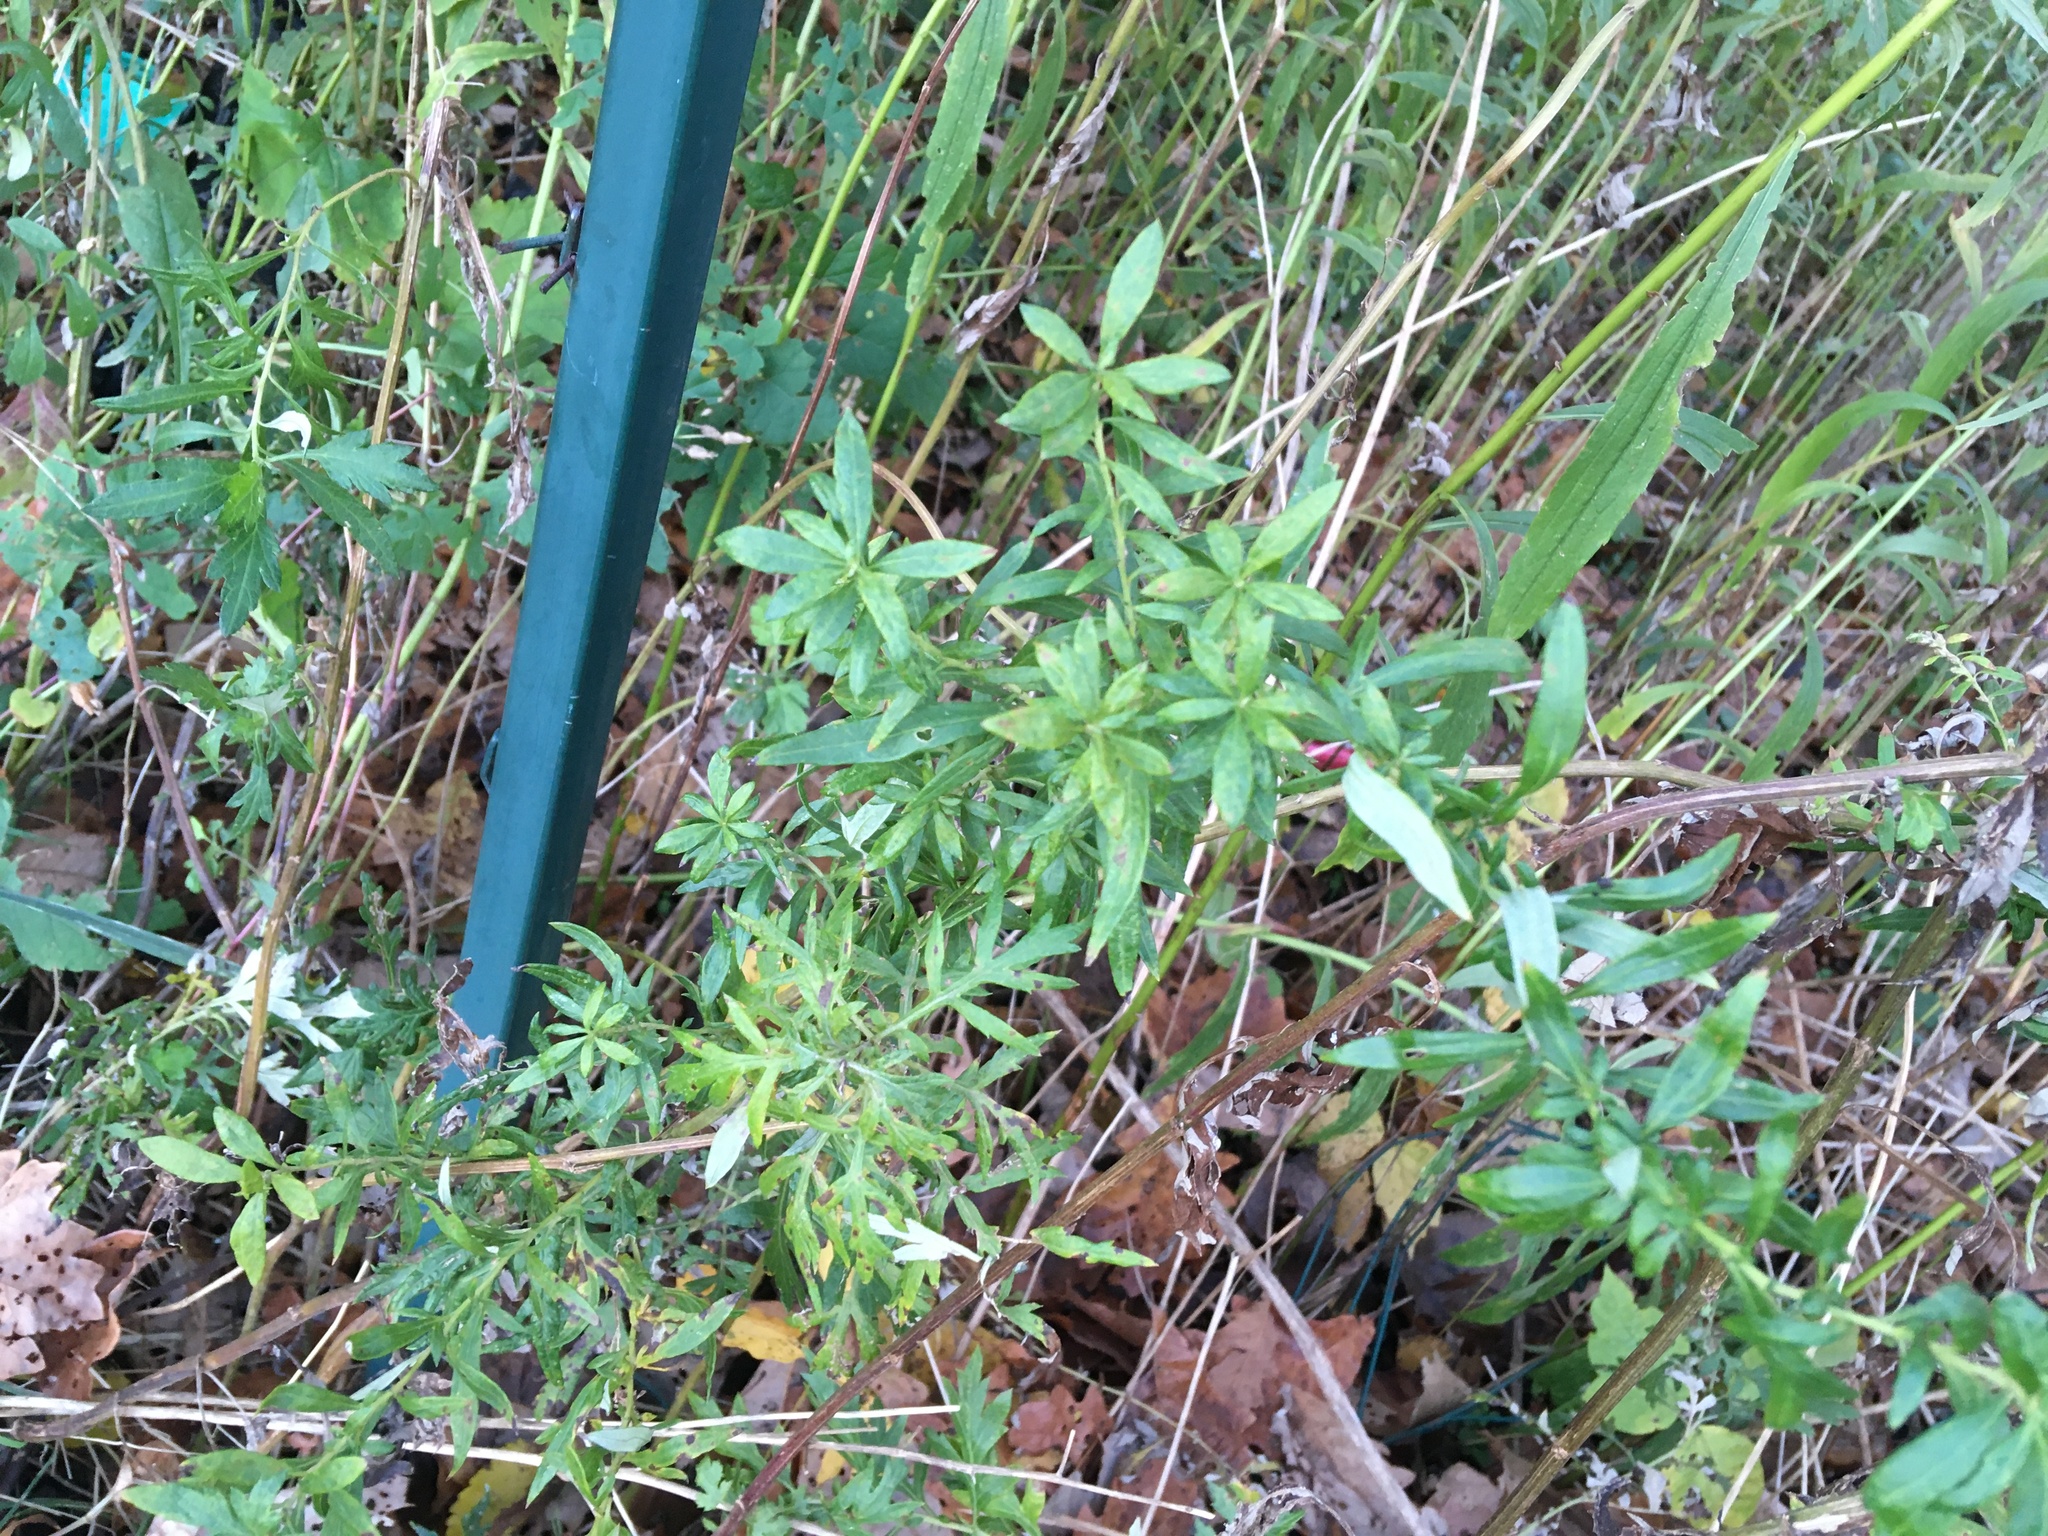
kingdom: Plantae
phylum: Tracheophyta
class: Magnoliopsida
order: Asterales
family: Asteraceae
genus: Artemisia
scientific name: Artemisia vulgaris
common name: Mugwort
